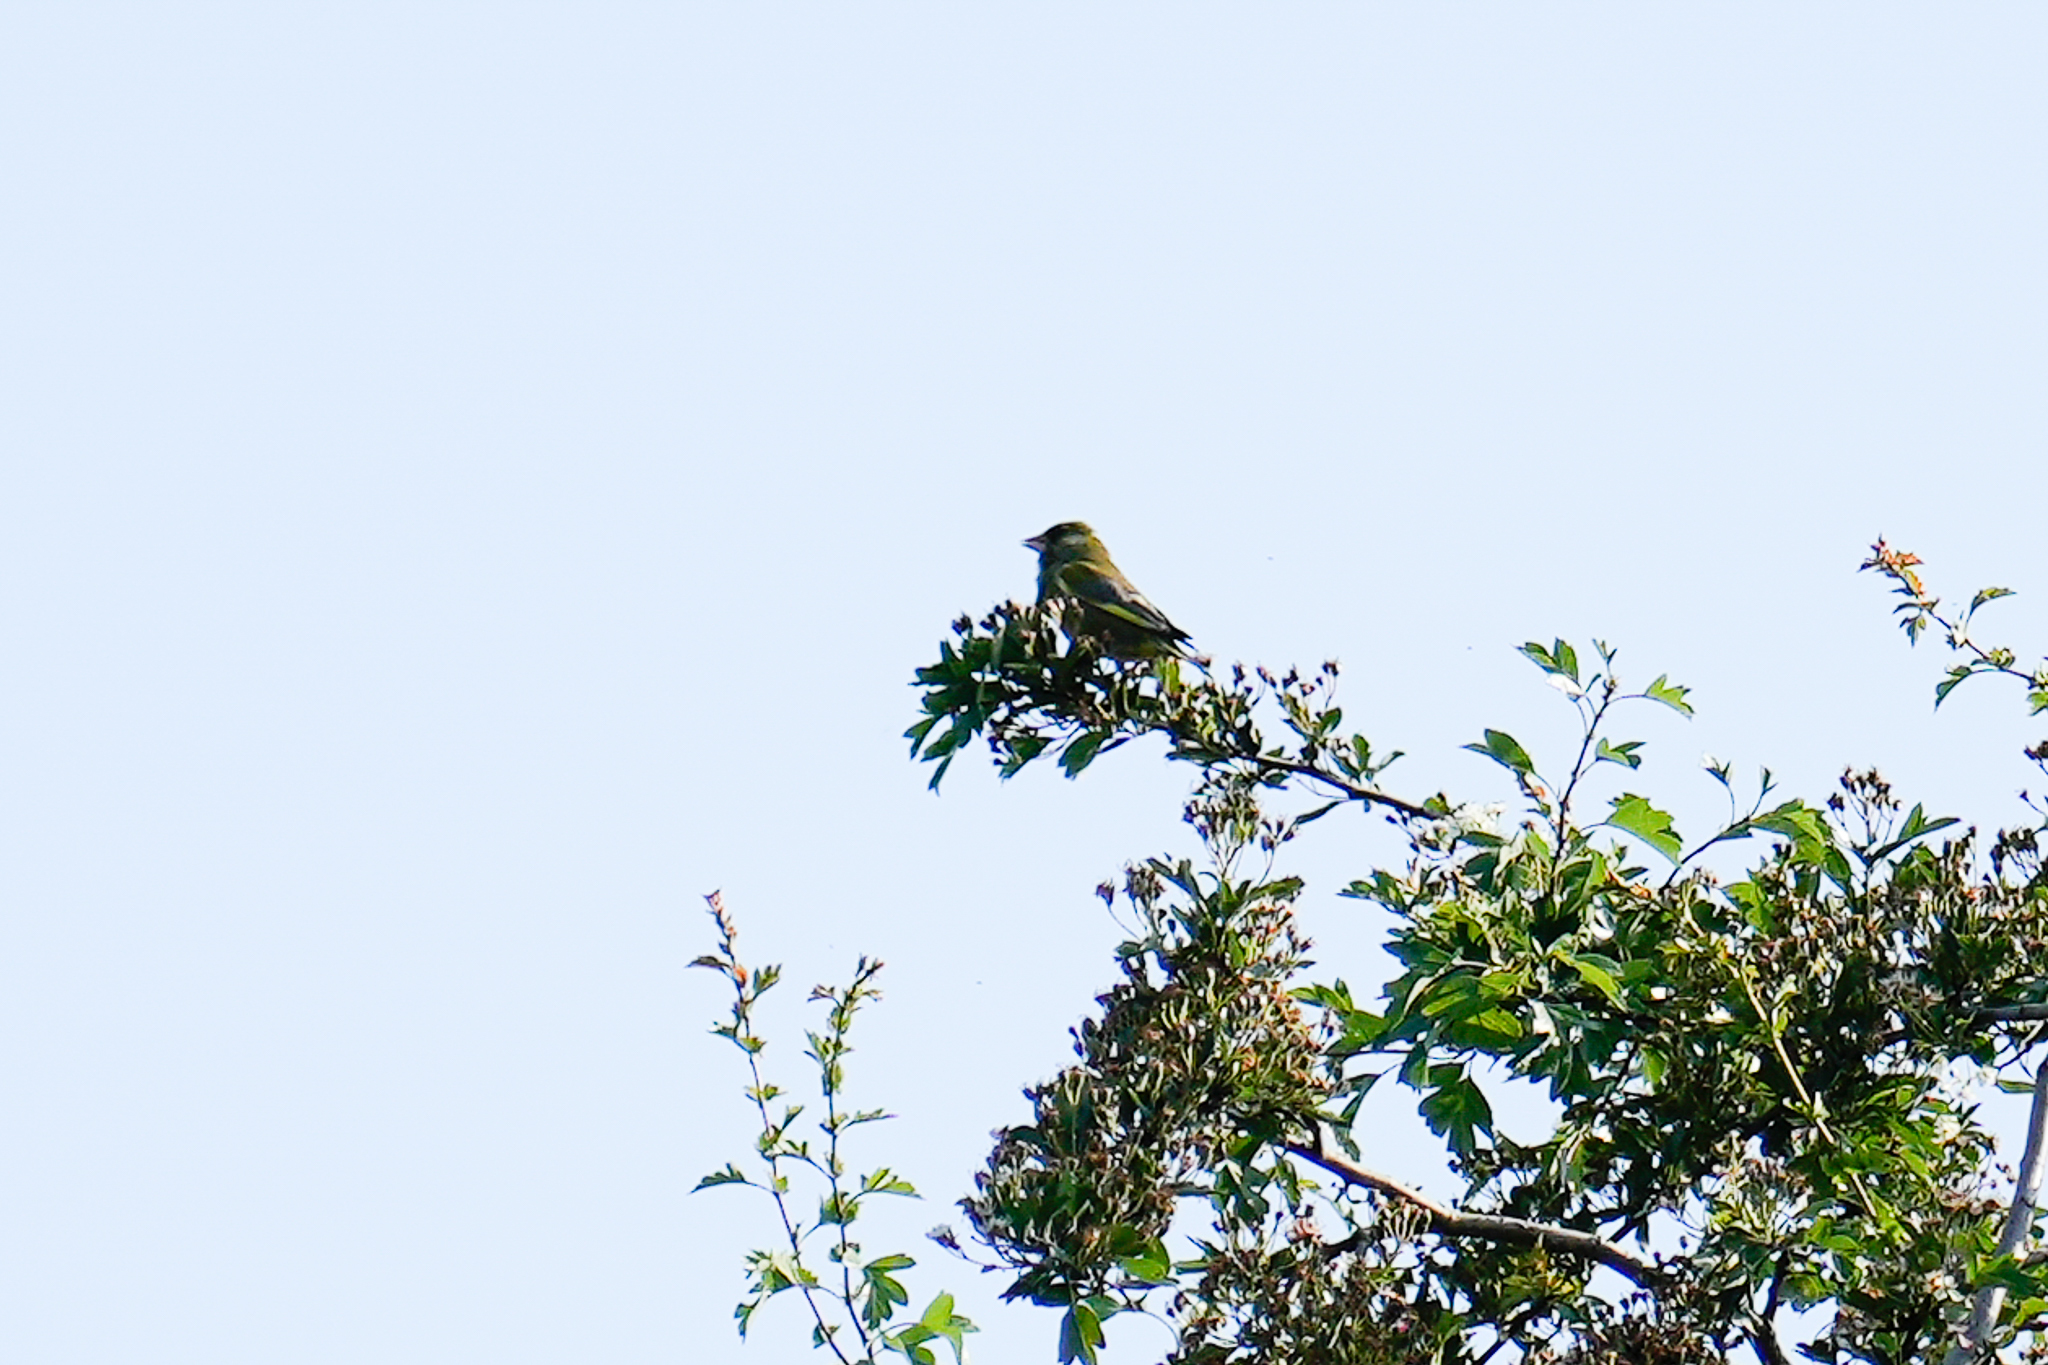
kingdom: Plantae
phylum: Tracheophyta
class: Liliopsida
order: Poales
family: Poaceae
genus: Chloris
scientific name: Chloris chloris
